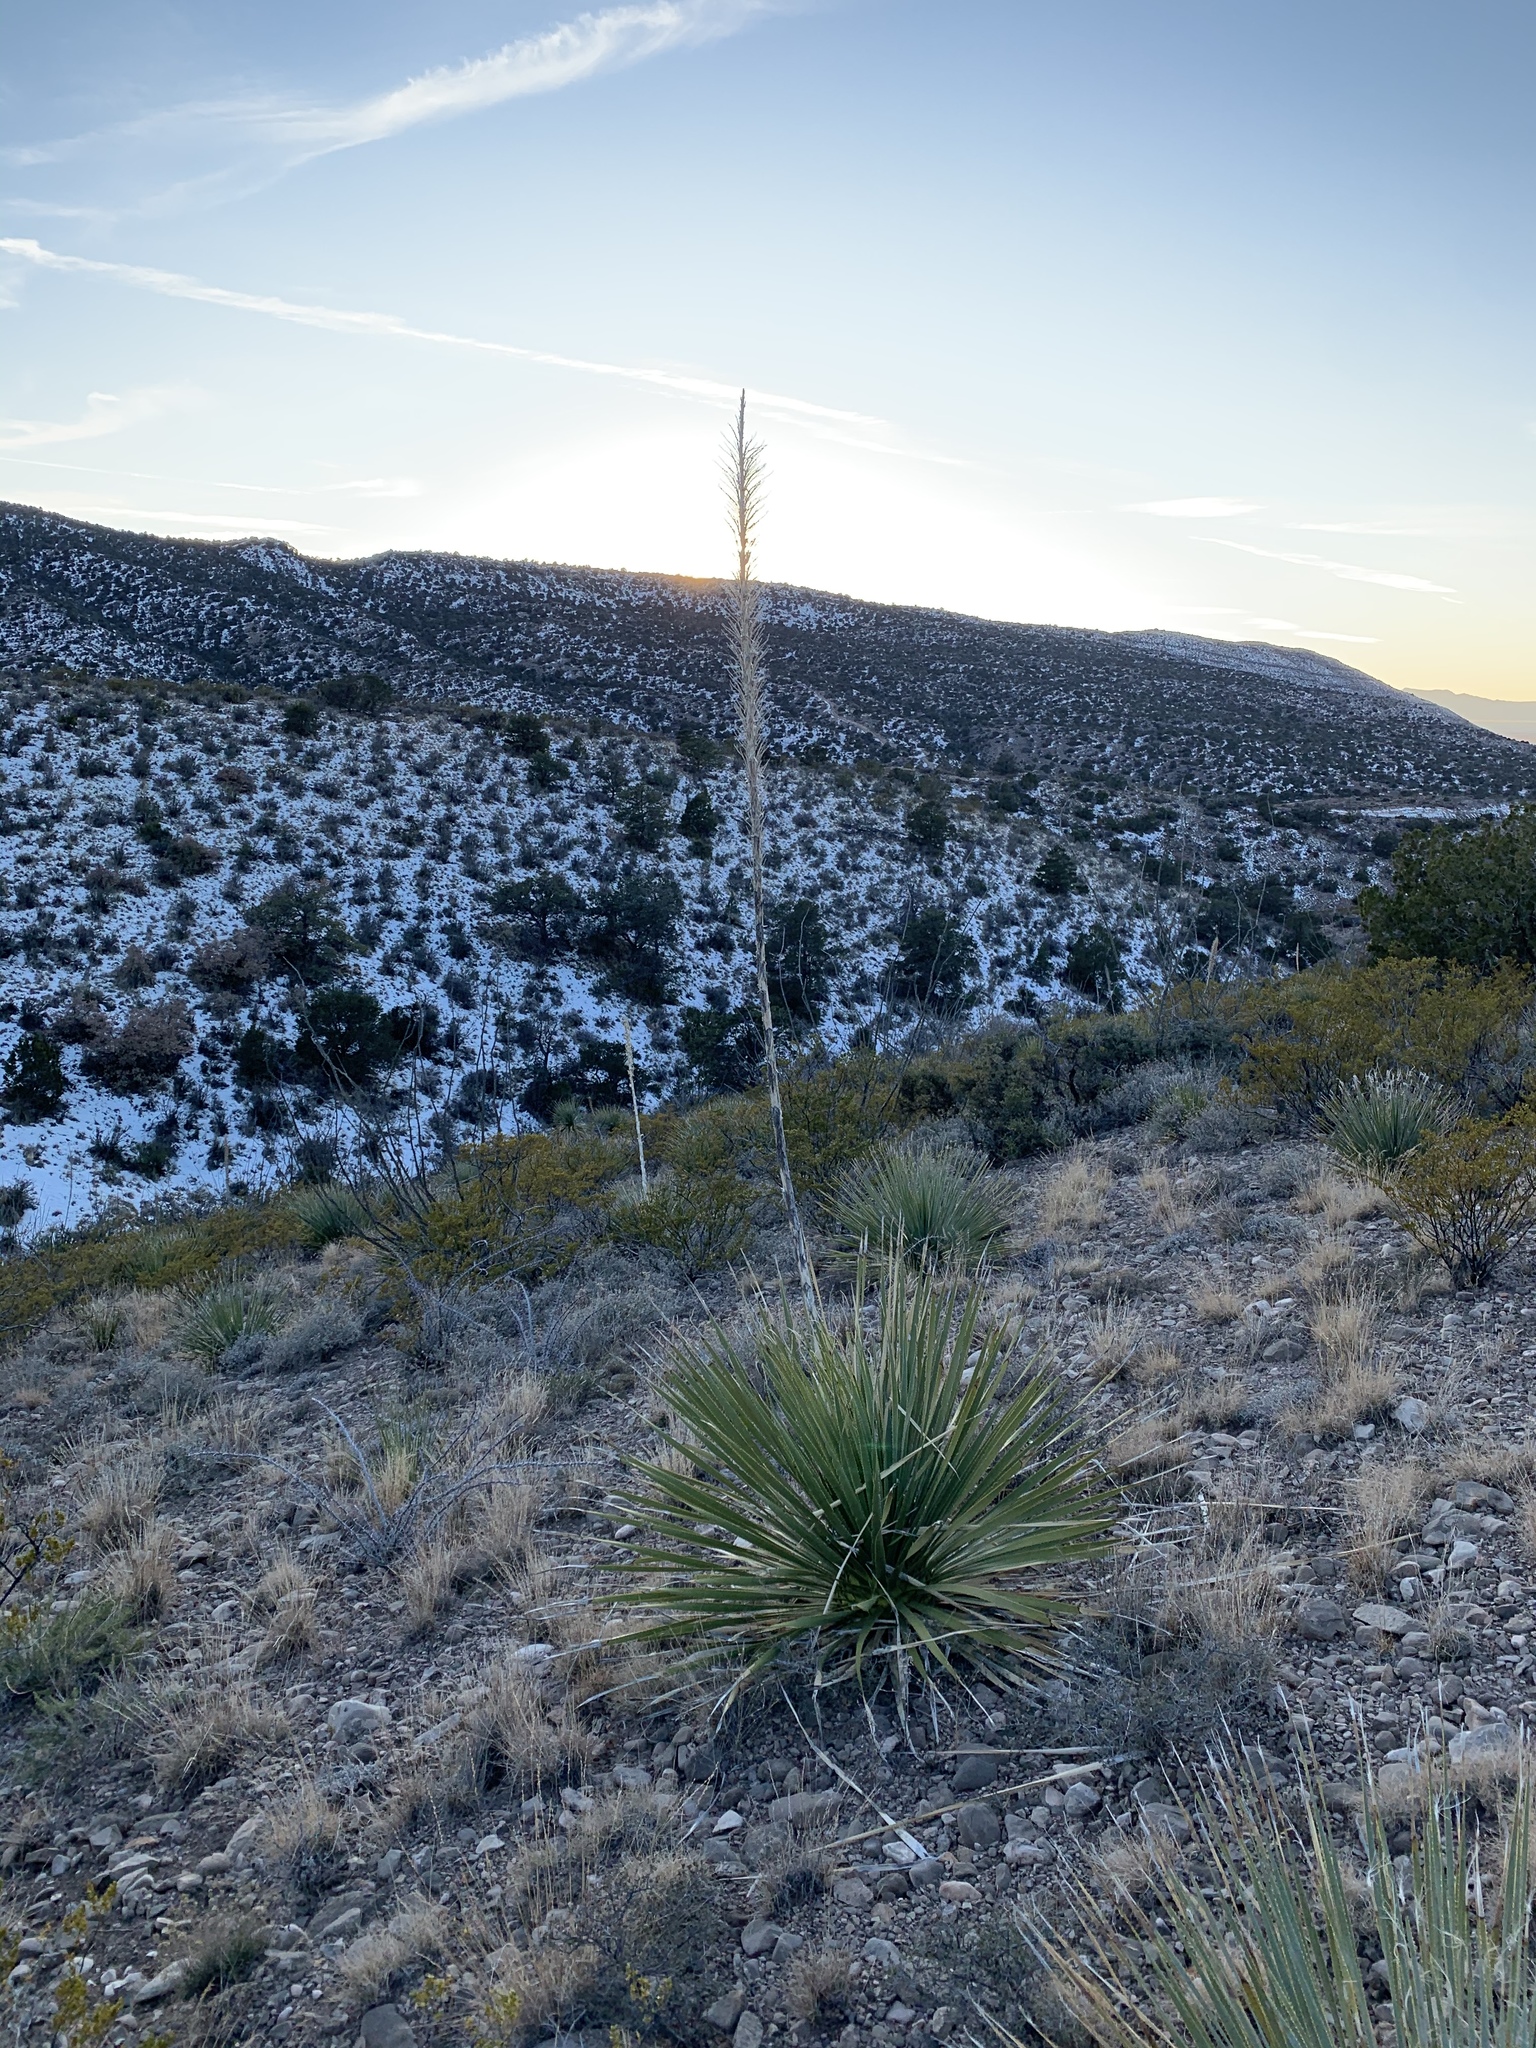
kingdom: Plantae
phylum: Tracheophyta
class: Liliopsida
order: Asparagales
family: Asparagaceae
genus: Dasylirion
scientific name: Dasylirion wheeleri
